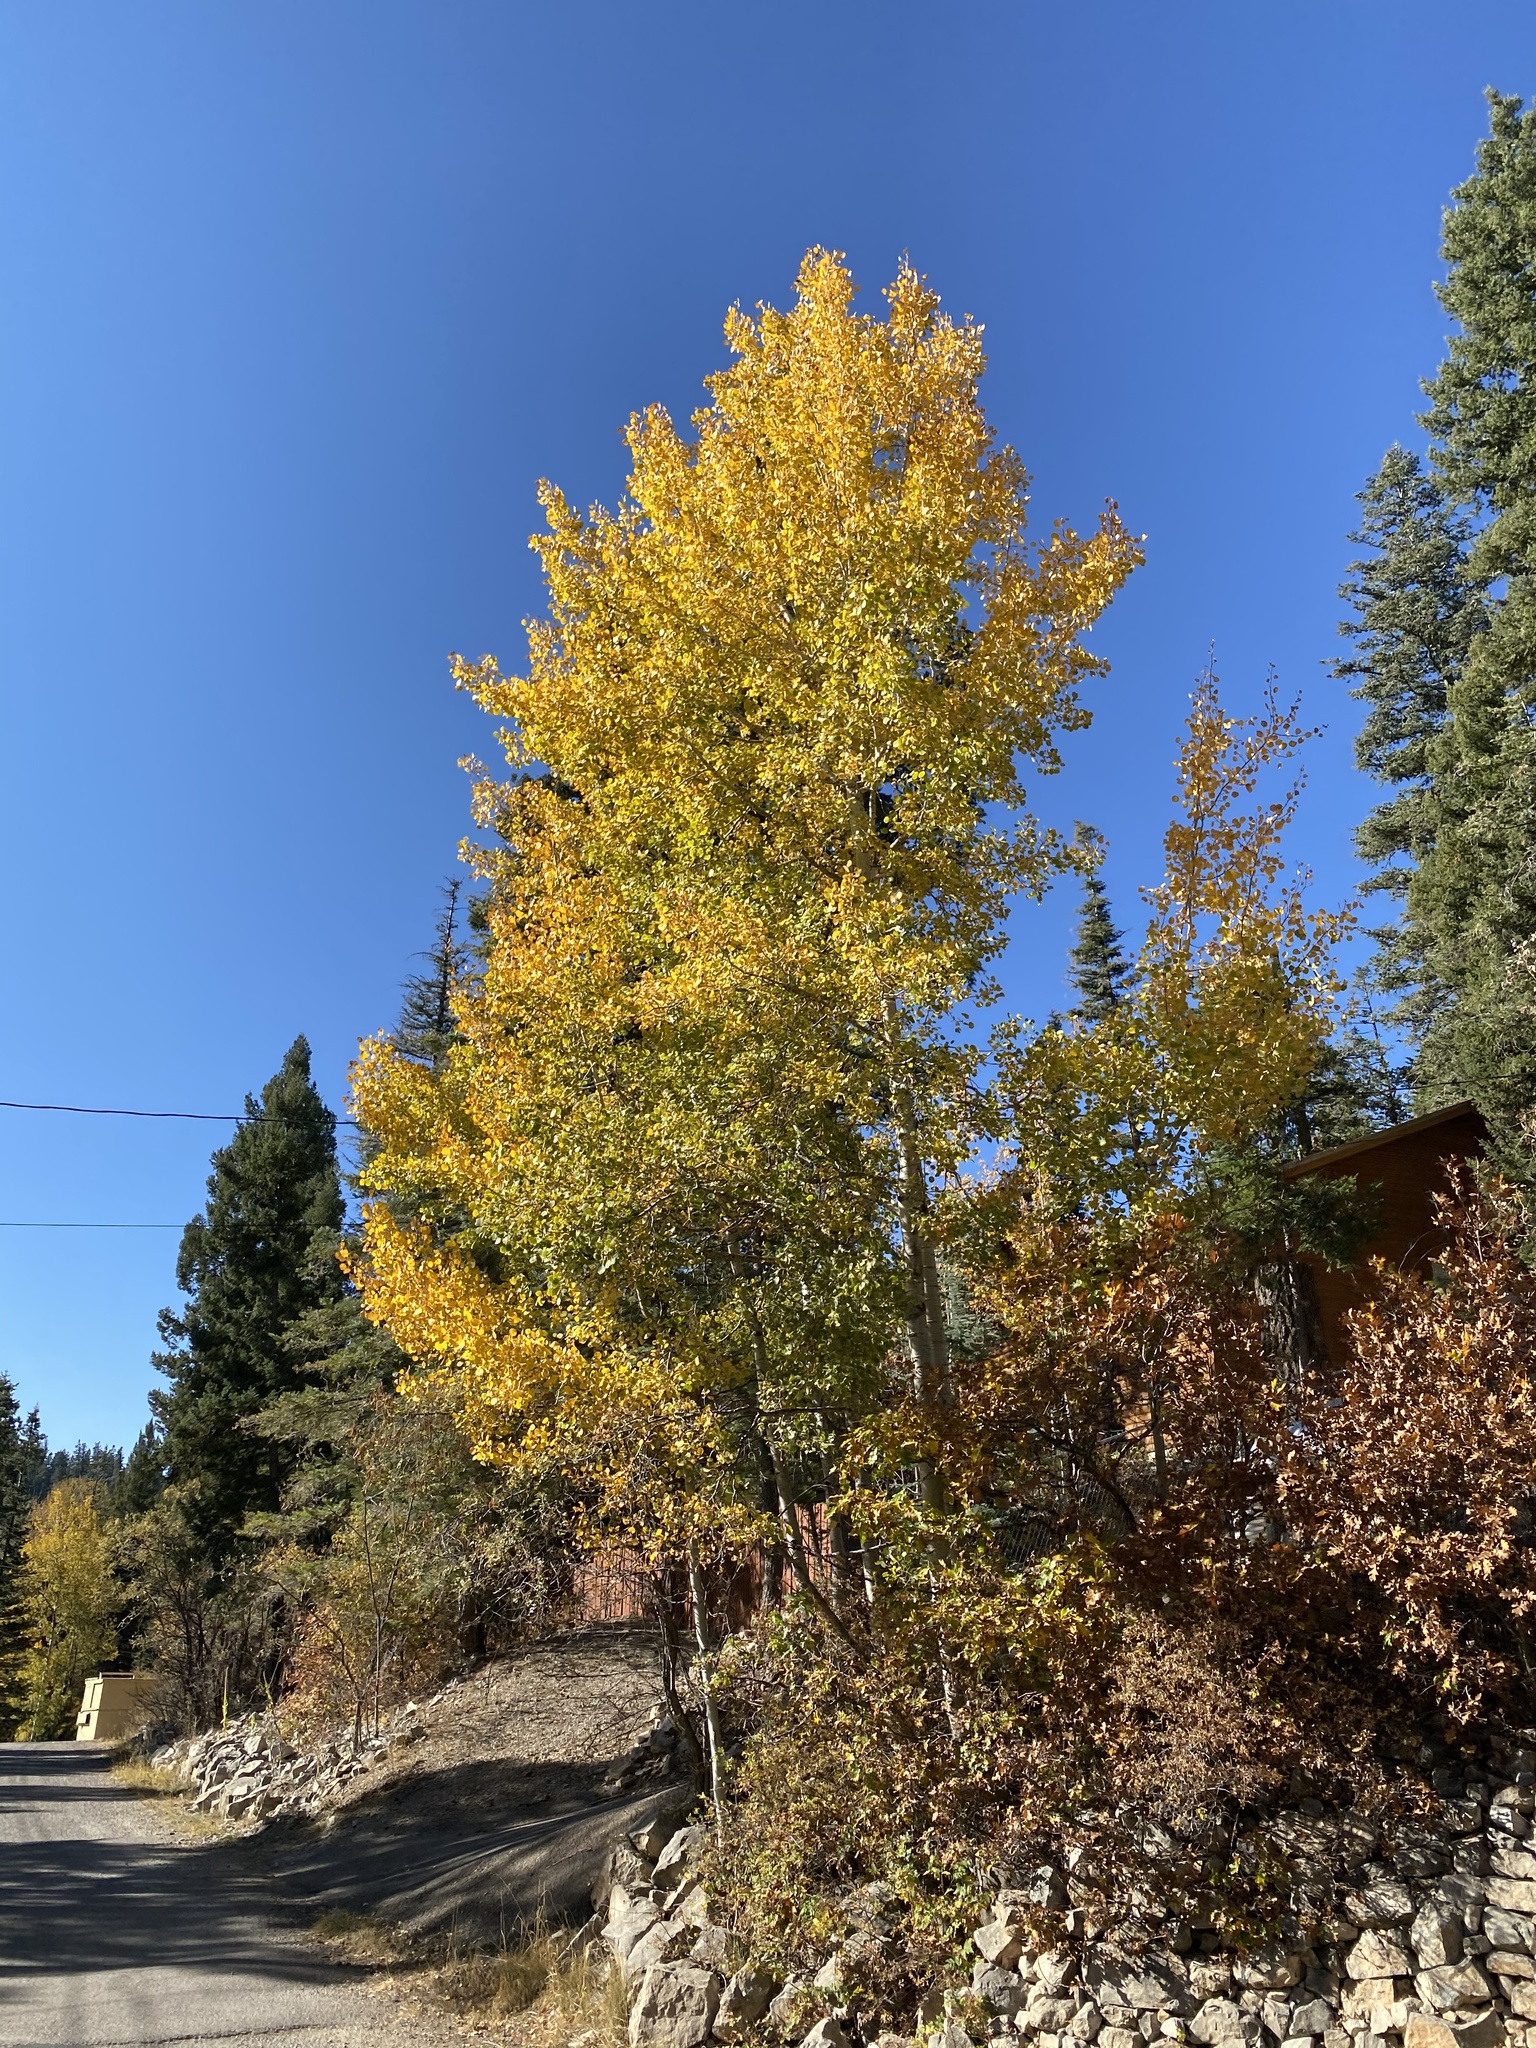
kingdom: Plantae
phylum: Tracheophyta
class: Magnoliopsida
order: Malpighiales
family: Salicaceae
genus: Populus
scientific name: Populus tremuloides
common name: Quaking aspen
